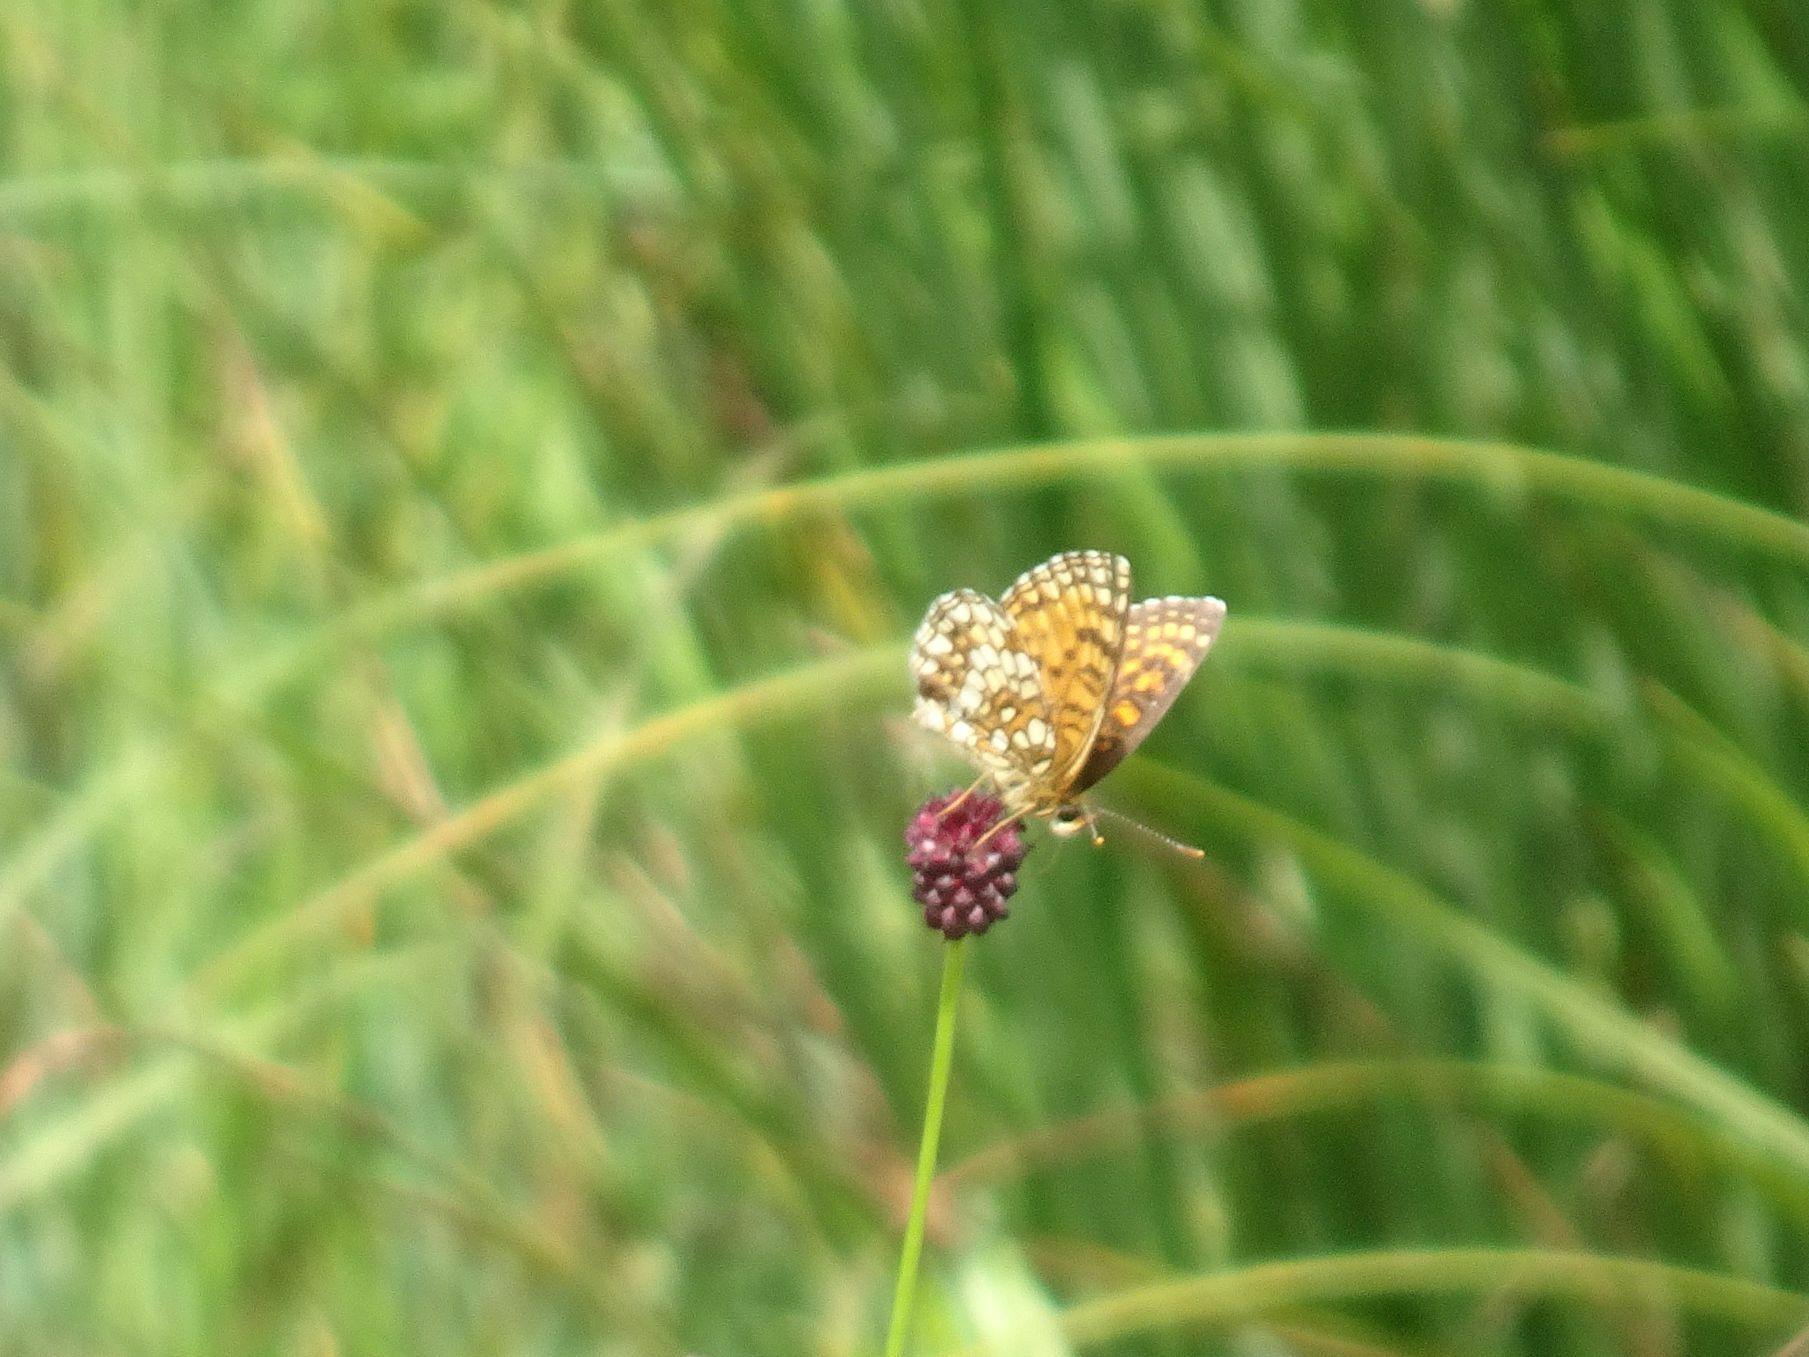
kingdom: Animalia
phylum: Arthropoda
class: Insecta
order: Lepidoptera
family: Nymphalidae
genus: Melitaea
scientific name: Melitaea diamina
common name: False heath fritillary
